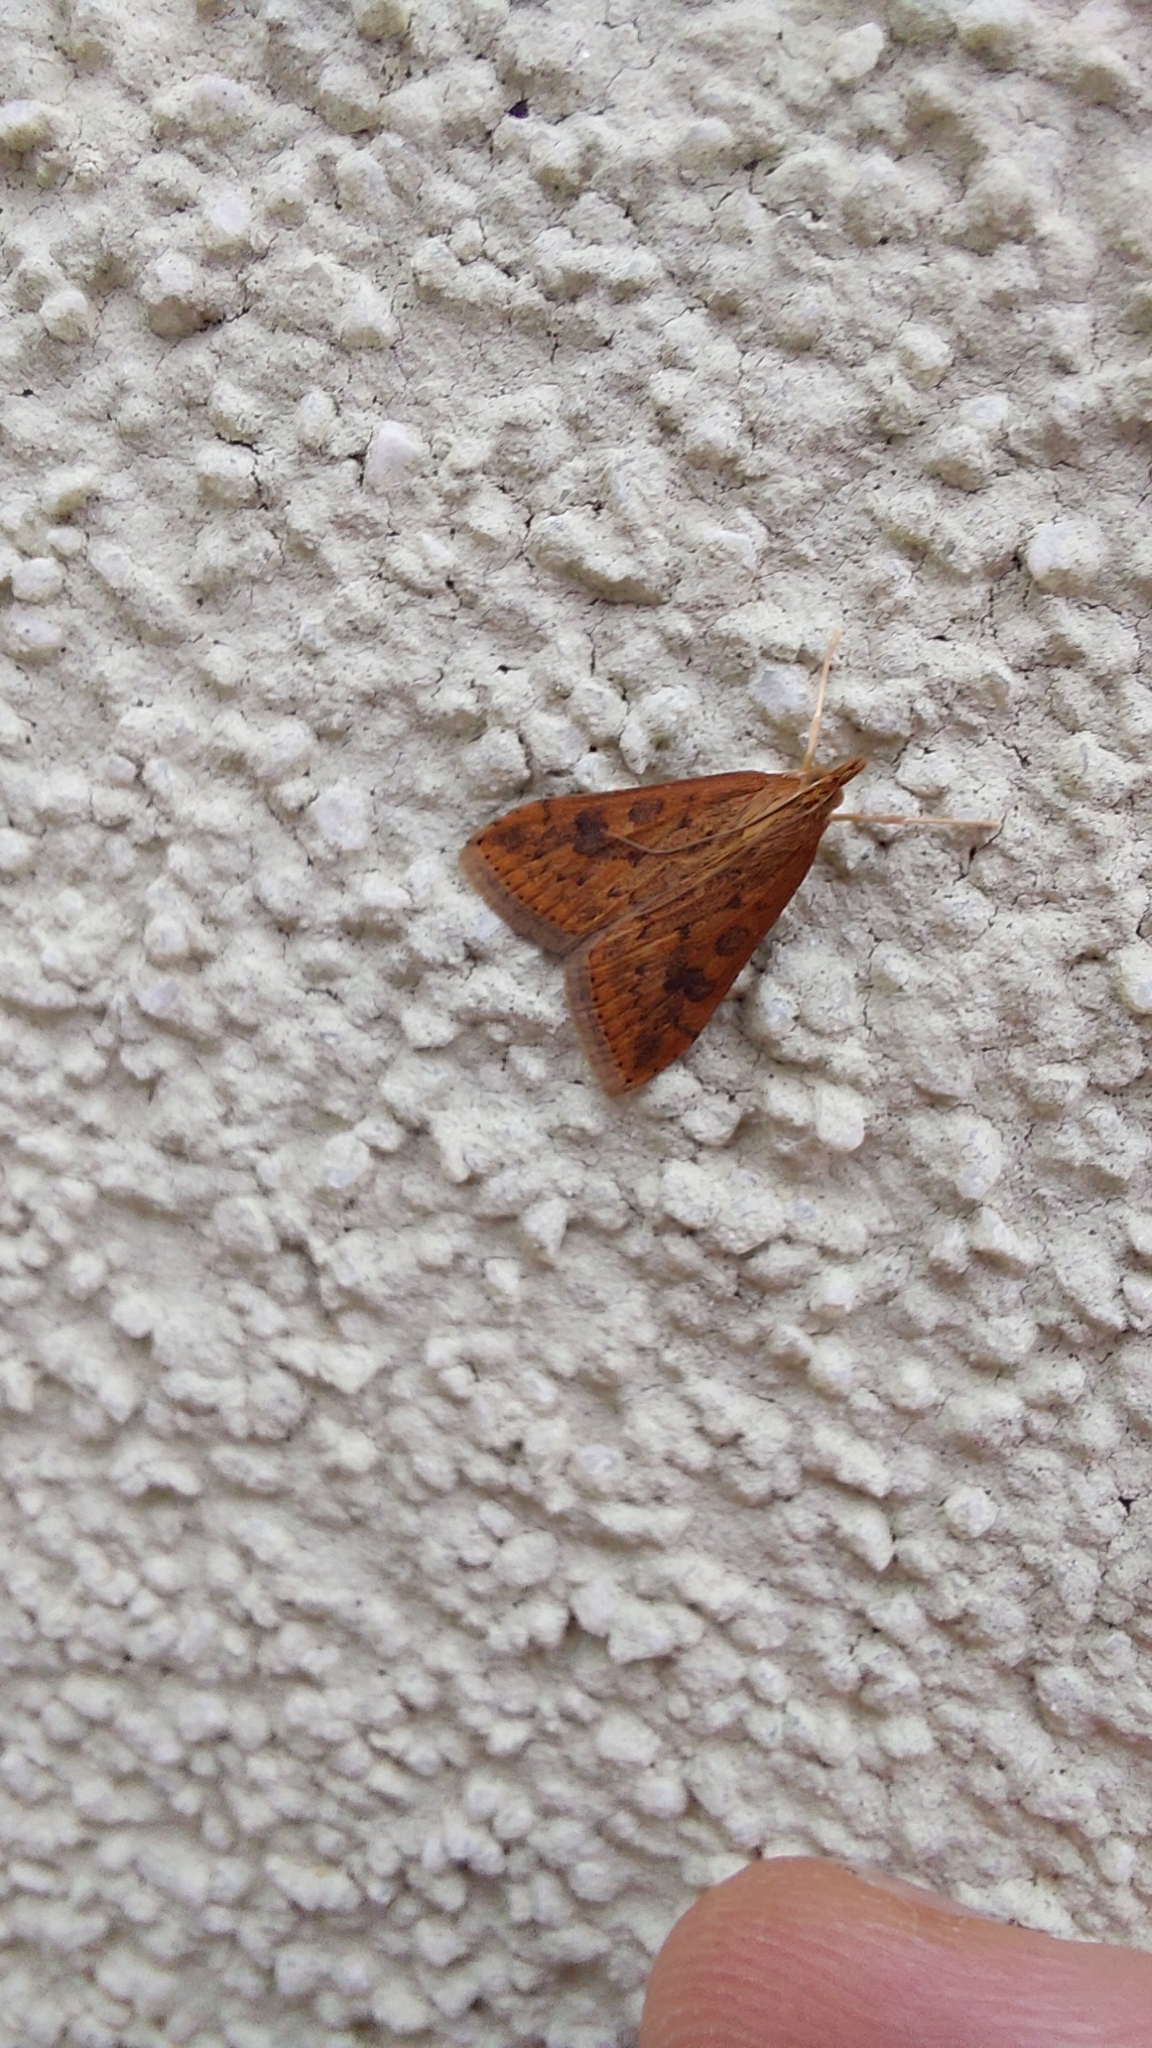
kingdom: Animalia
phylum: Arthropoda
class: Insecta
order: Lepidoptera
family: Crambidae
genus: Udea
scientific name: Udea ferrugalis
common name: Rusty dot
